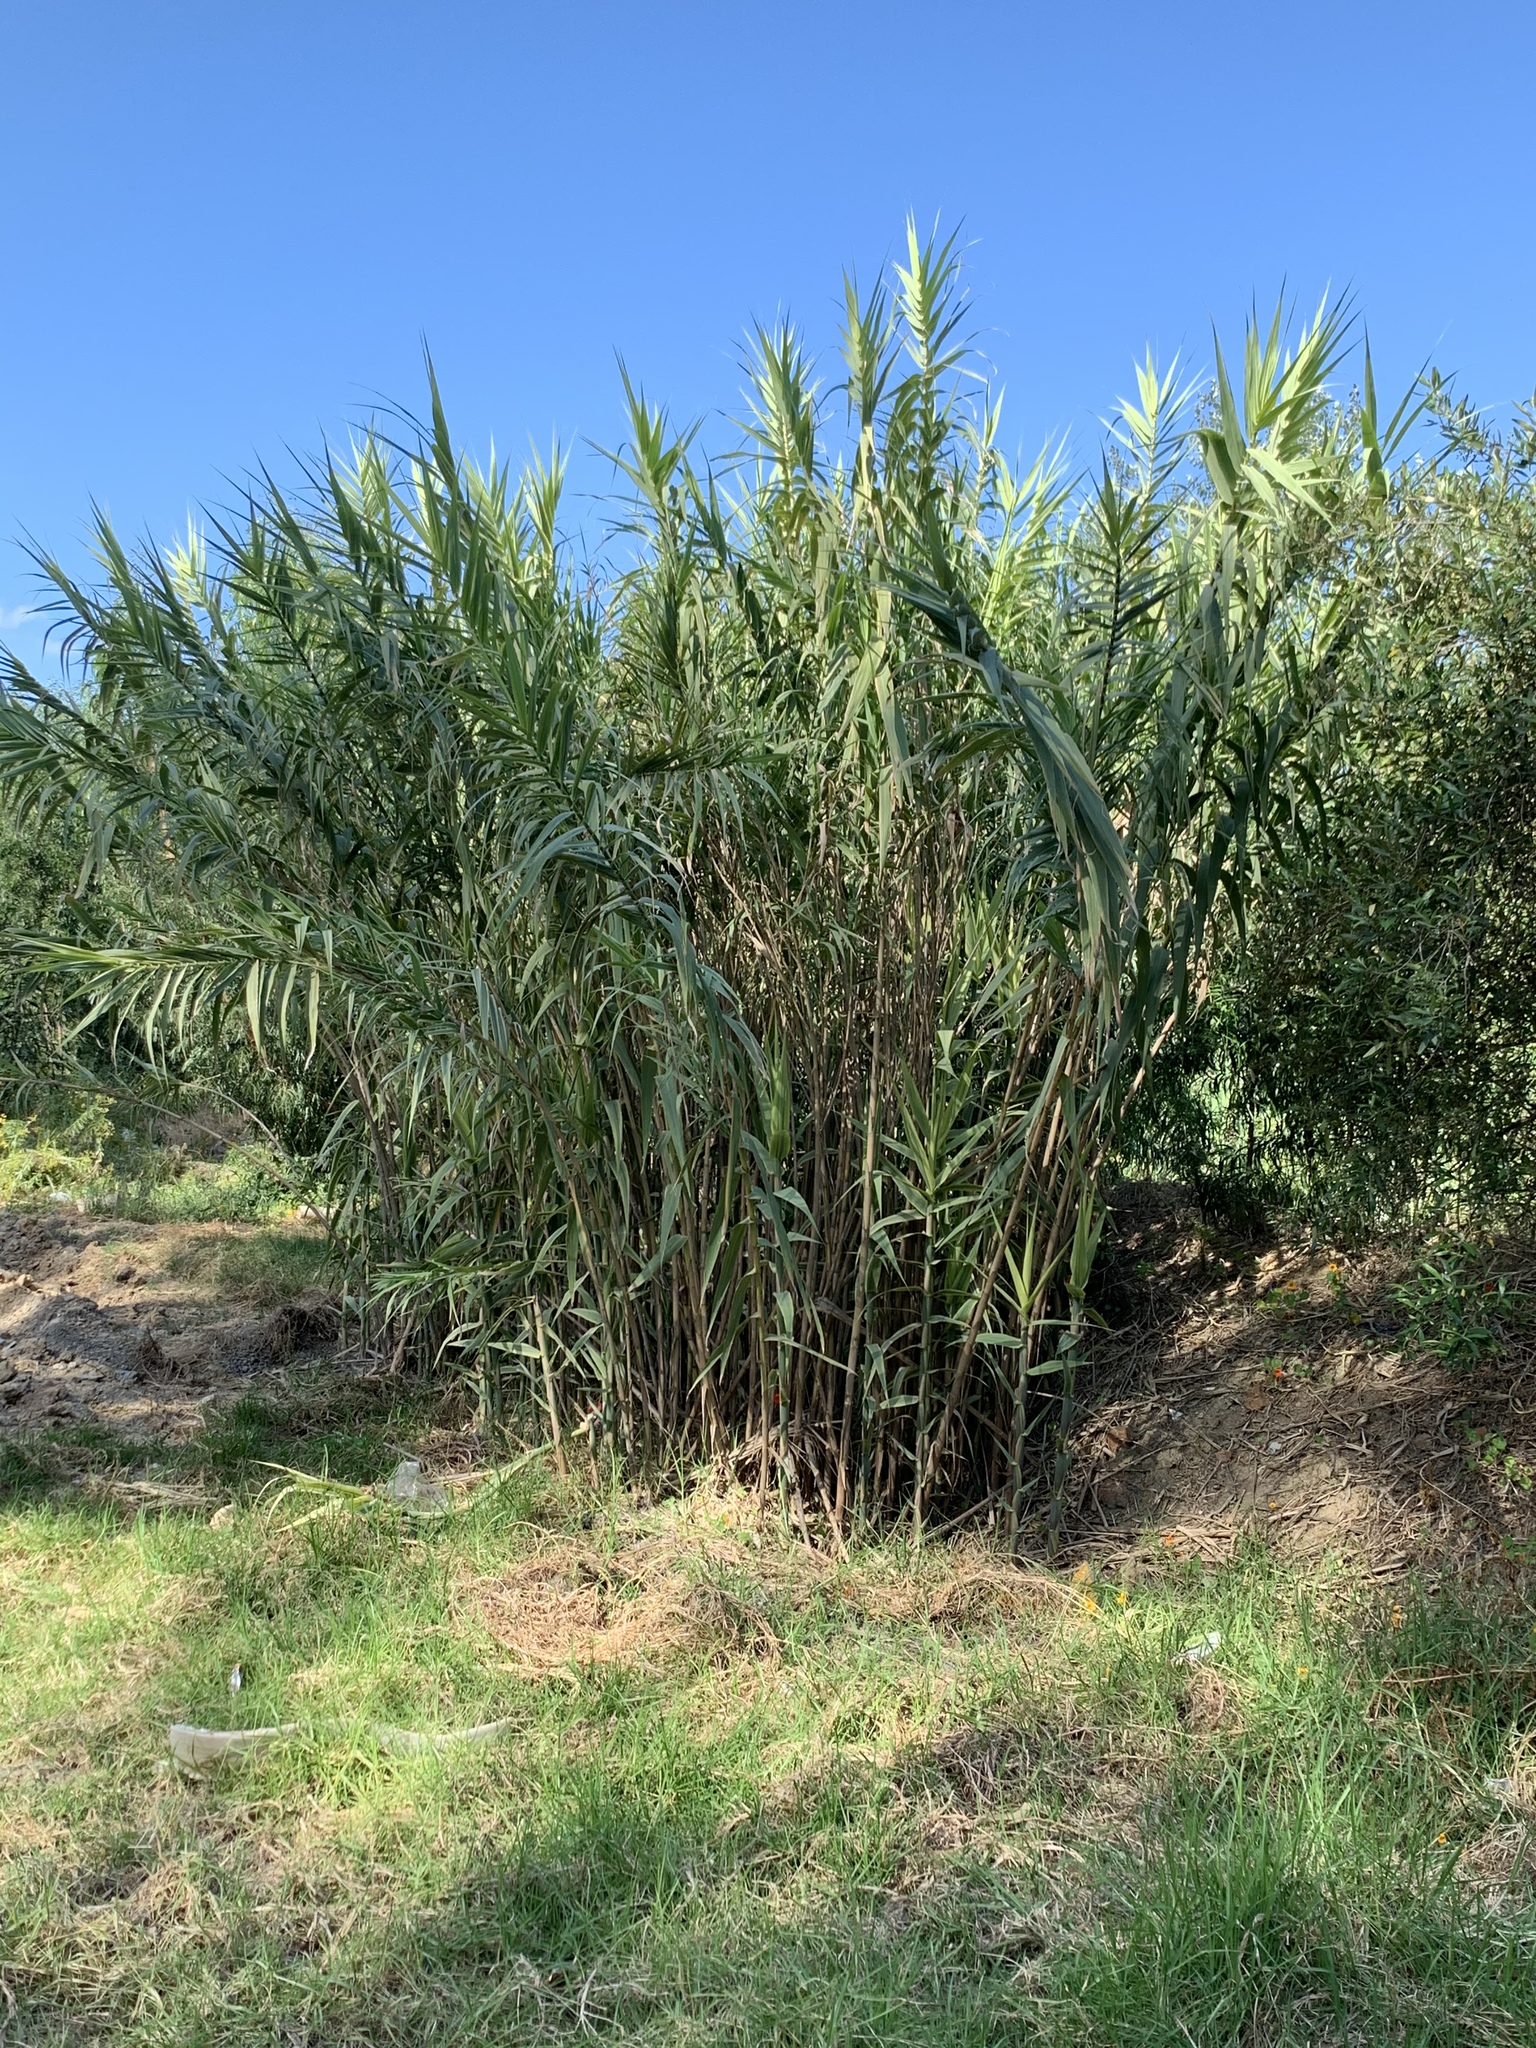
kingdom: Plantae
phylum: Tracheophyta
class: Liliopsida
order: Poales
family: Poaceae
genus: Arundo
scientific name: Arundo donax
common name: Giant reed
